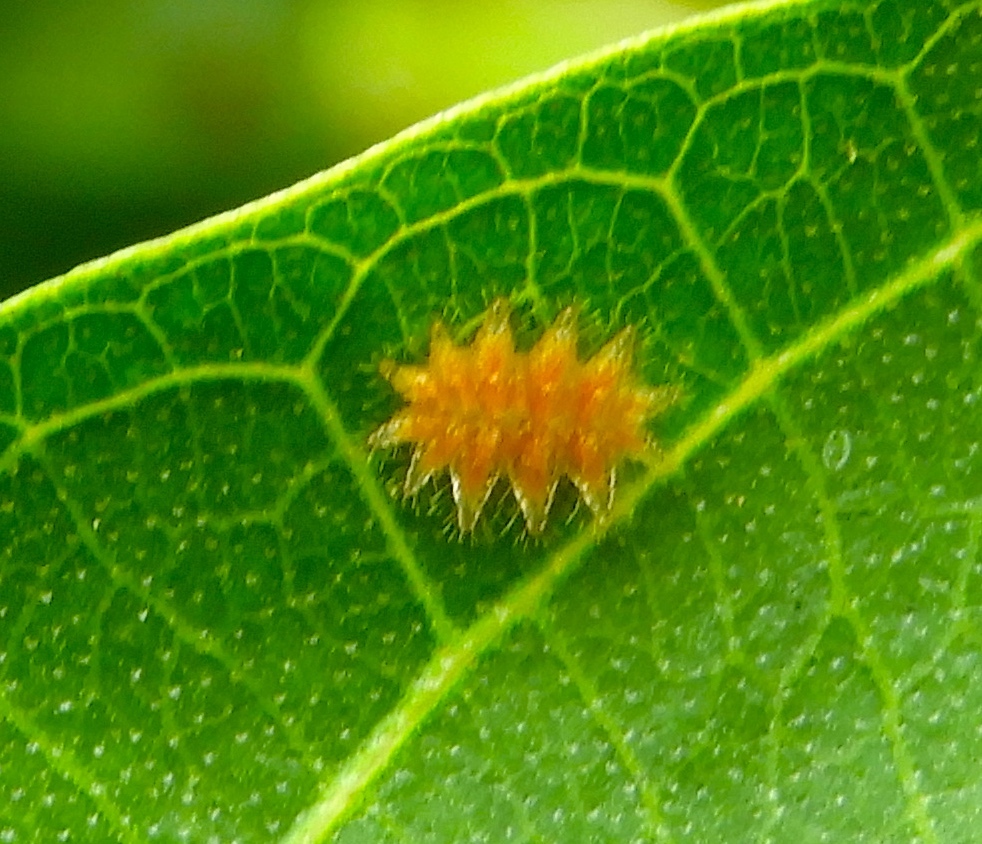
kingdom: Animalia
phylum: Arthropoda
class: Insecta
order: Lepidoptera
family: Limacodidae
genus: Phobetron
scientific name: Phobetron
